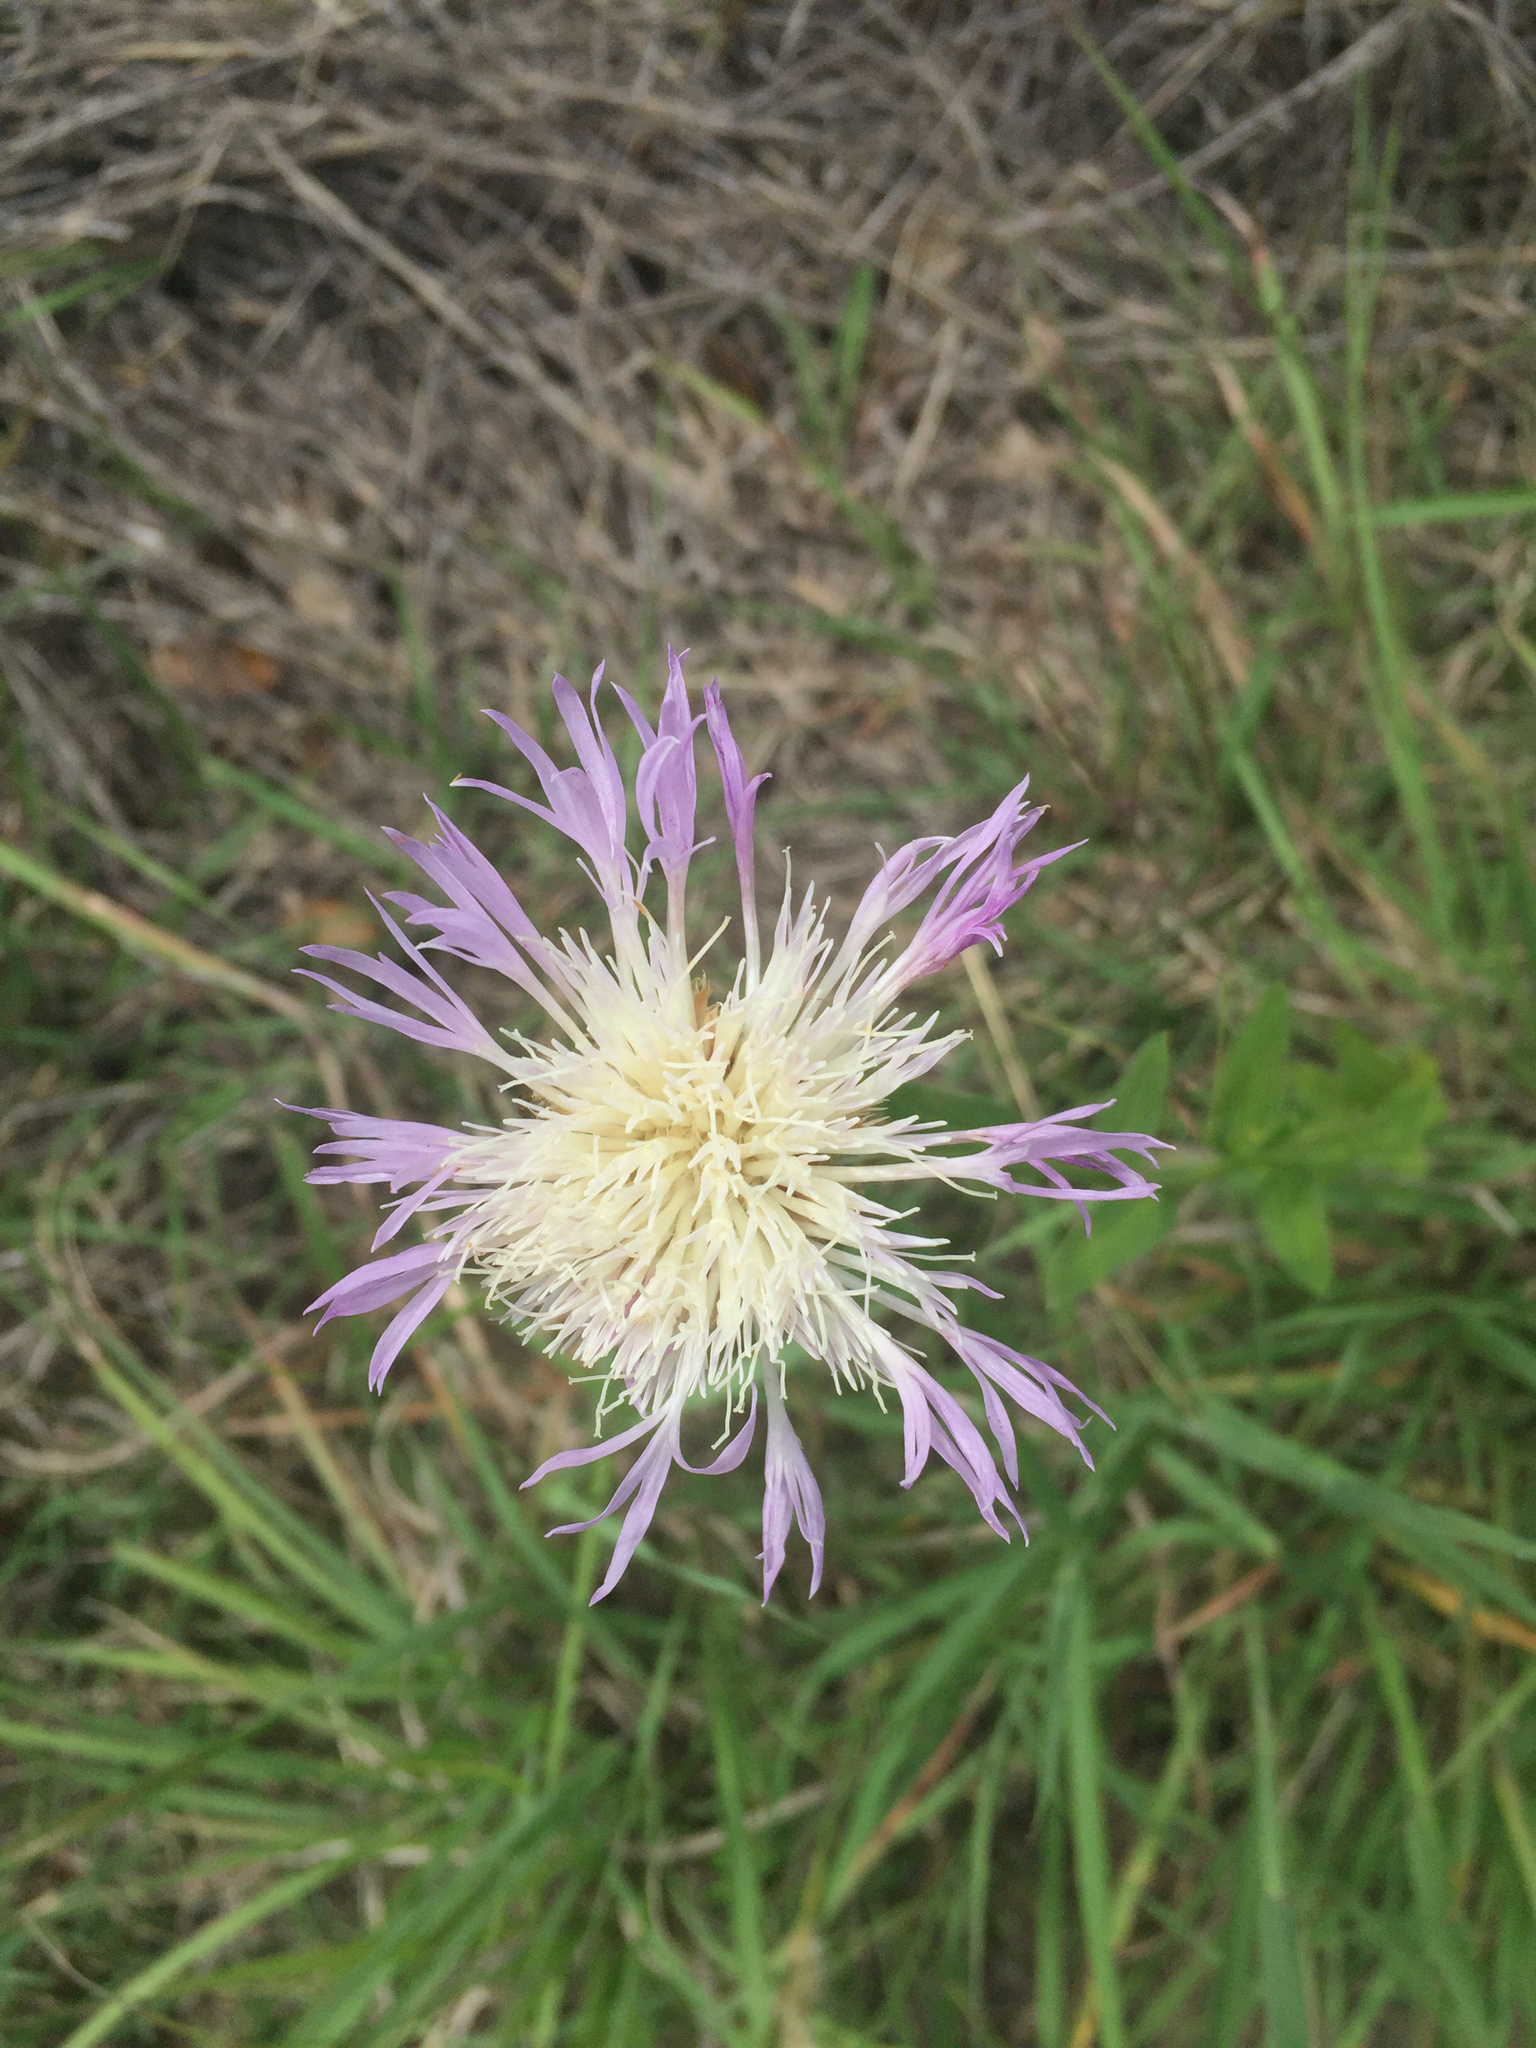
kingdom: Plantae
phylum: Tracheophyta
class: Magnoliopsida
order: Asterales
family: Asteraceae
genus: Plectocephalus
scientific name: Plectocephalus americanus
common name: American basket-flower
